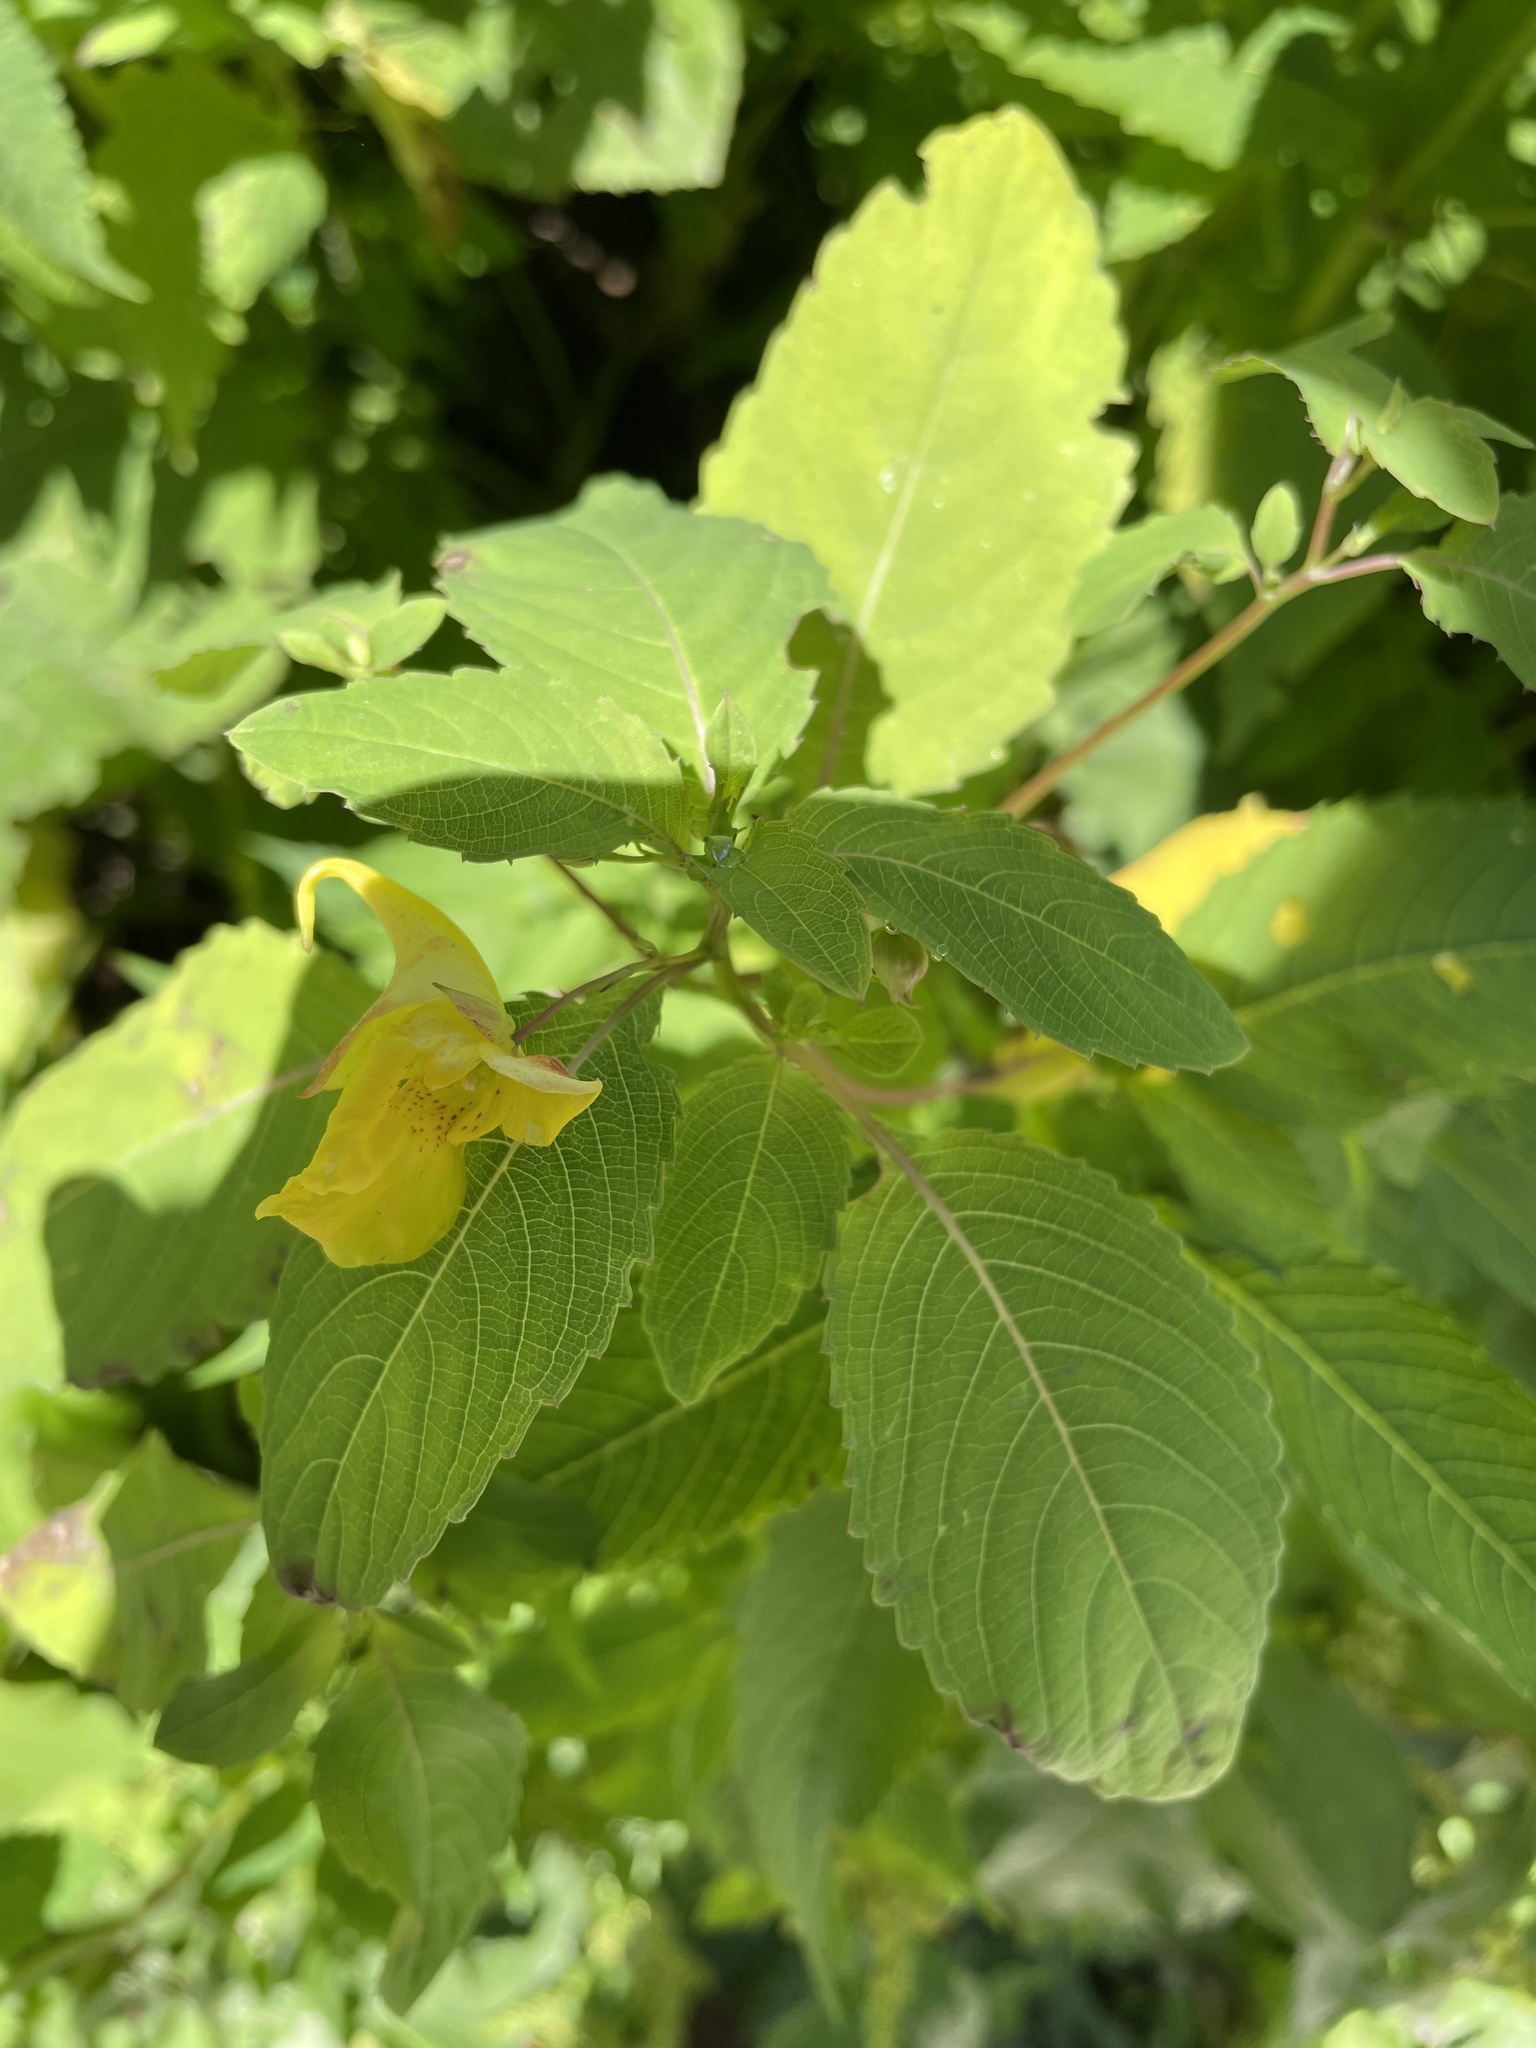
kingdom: Plantae
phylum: Tracheophyta
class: Magnoliopsida
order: Ericales
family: Balsaminaceae
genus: Impatiens
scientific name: Impatiens noli-tangere
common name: Touch-me-not balsam
